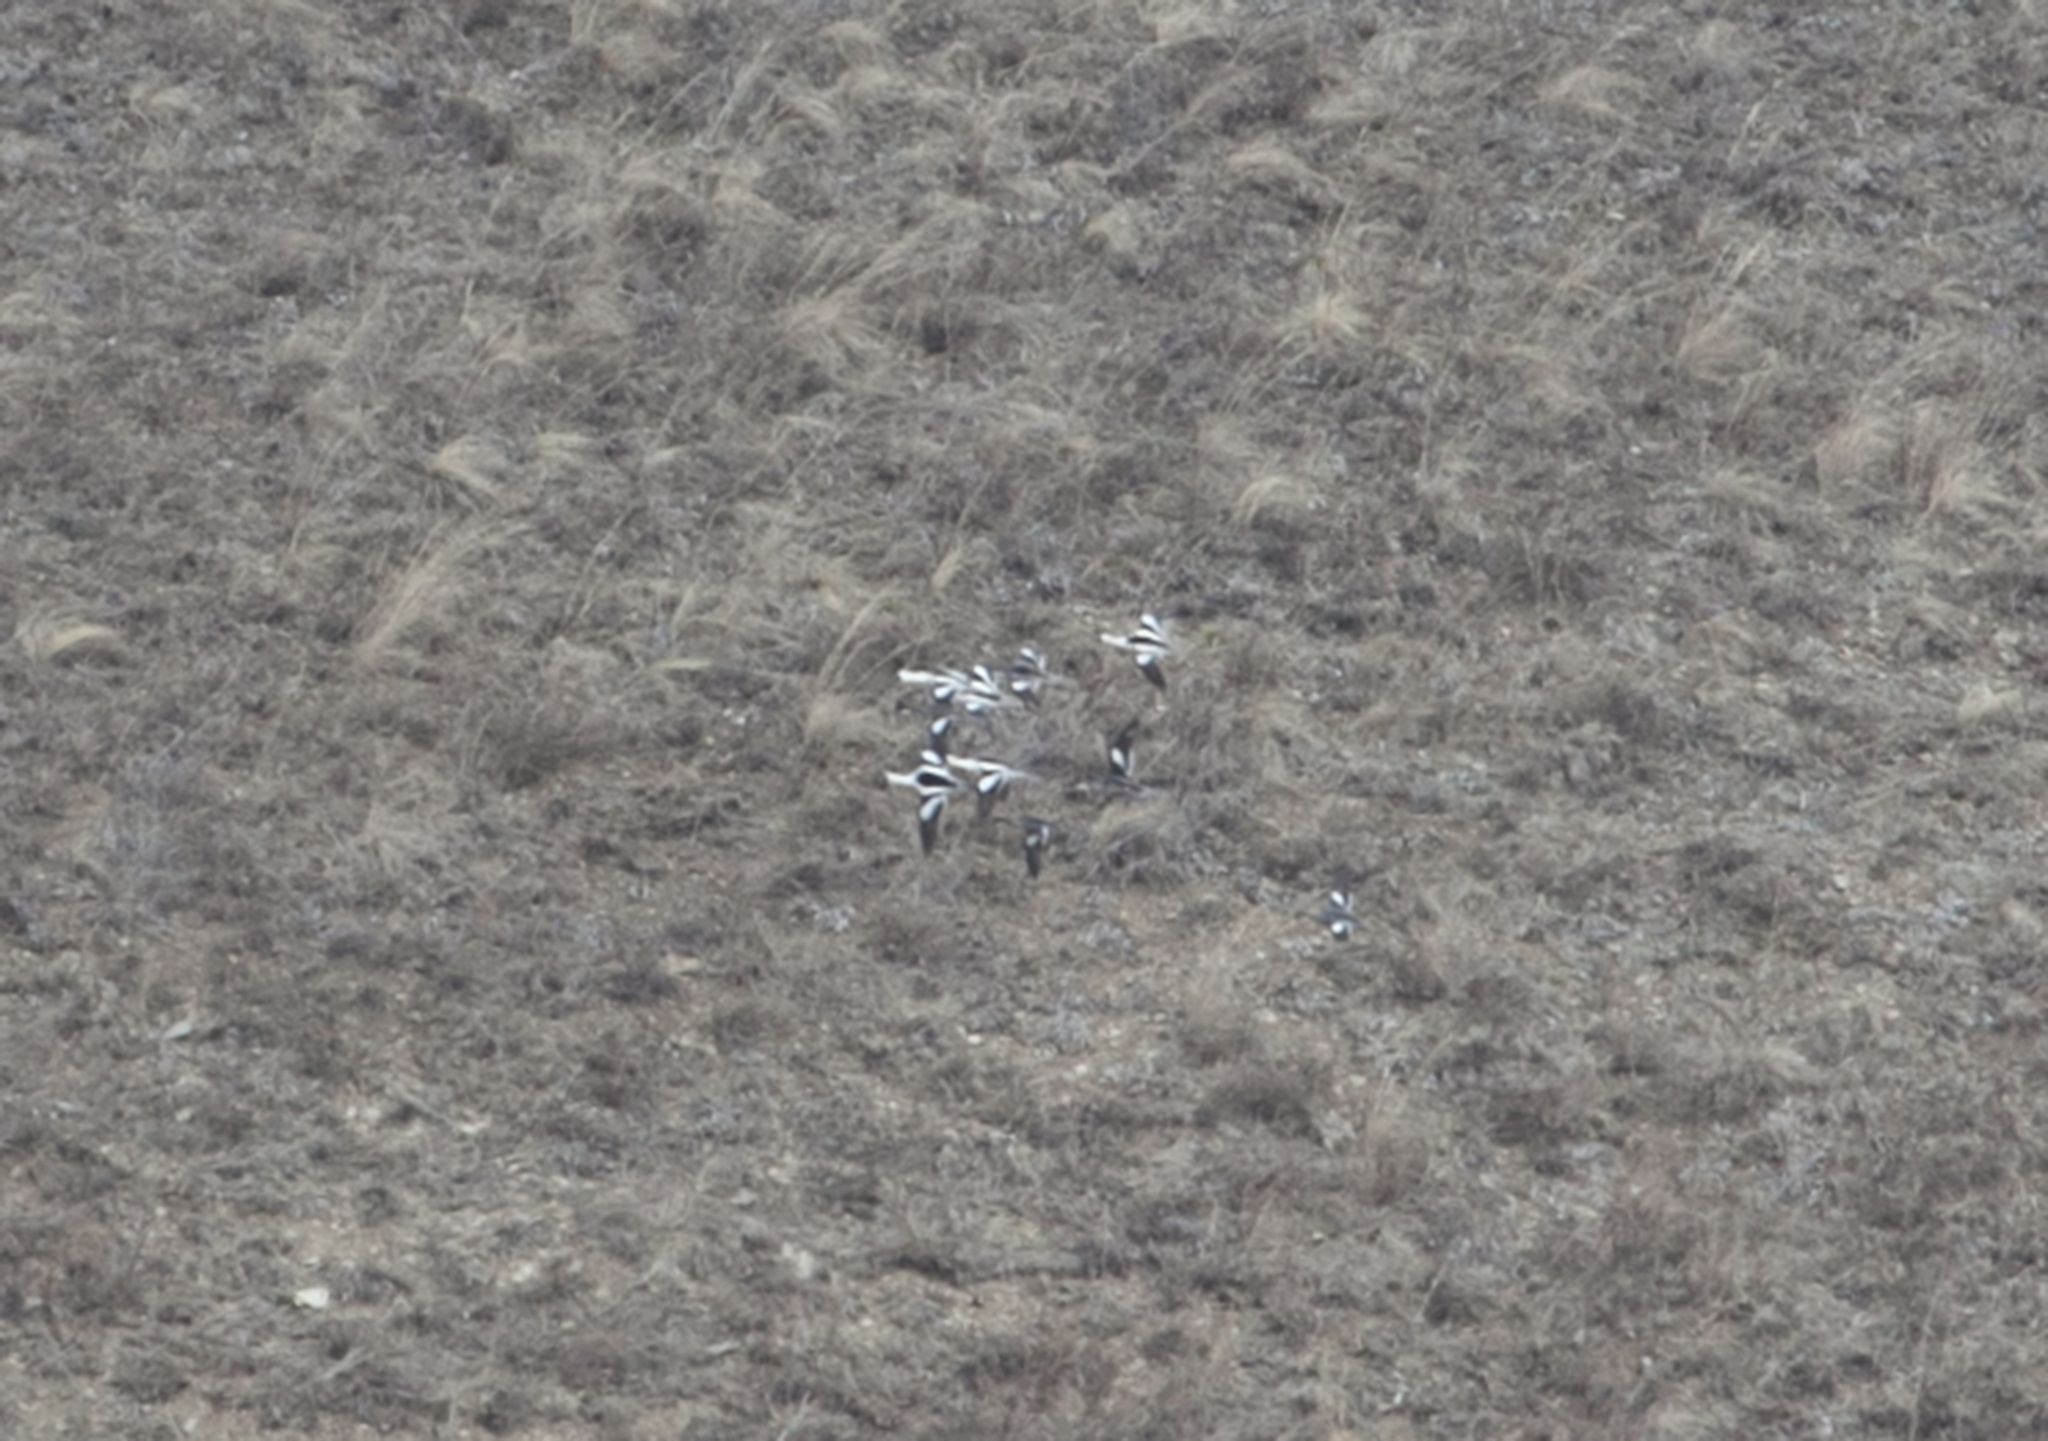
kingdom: Animalia
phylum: Chordata
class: Aves
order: Anseriformes
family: Anatidae
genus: Mergellus
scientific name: Mergellus albellus
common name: Smew
